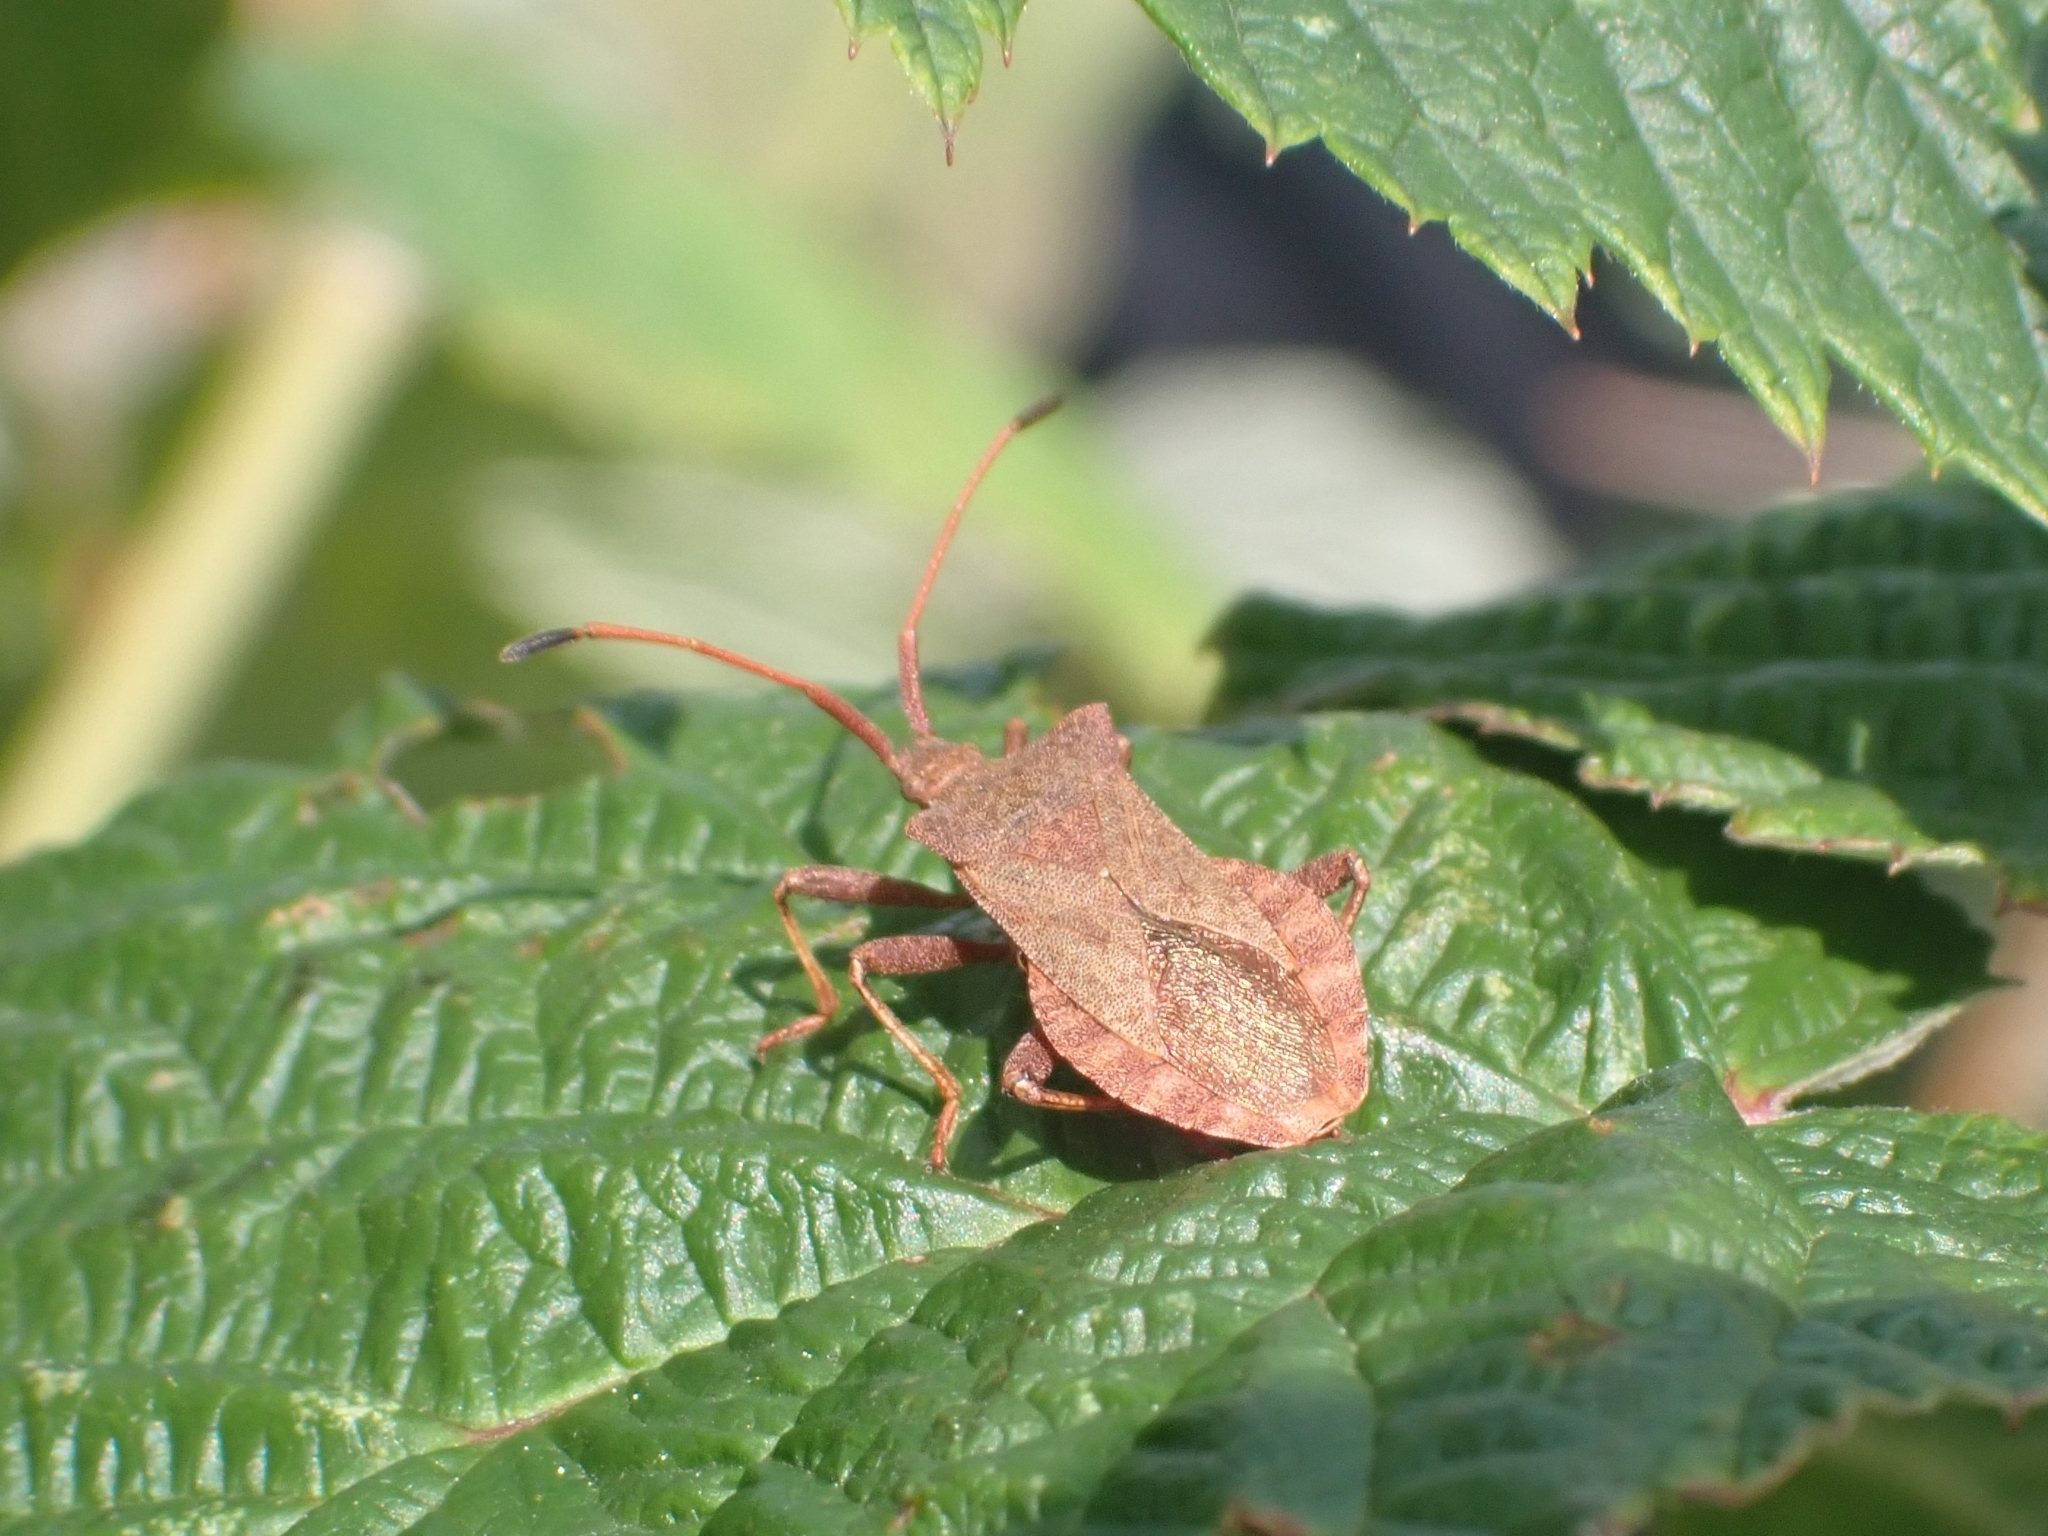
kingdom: Animalia
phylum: Arthropoda
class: Insecta
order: Hemiptera
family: Coreidae
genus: Coreus
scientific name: Coreus marginatus
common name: Dock bug
